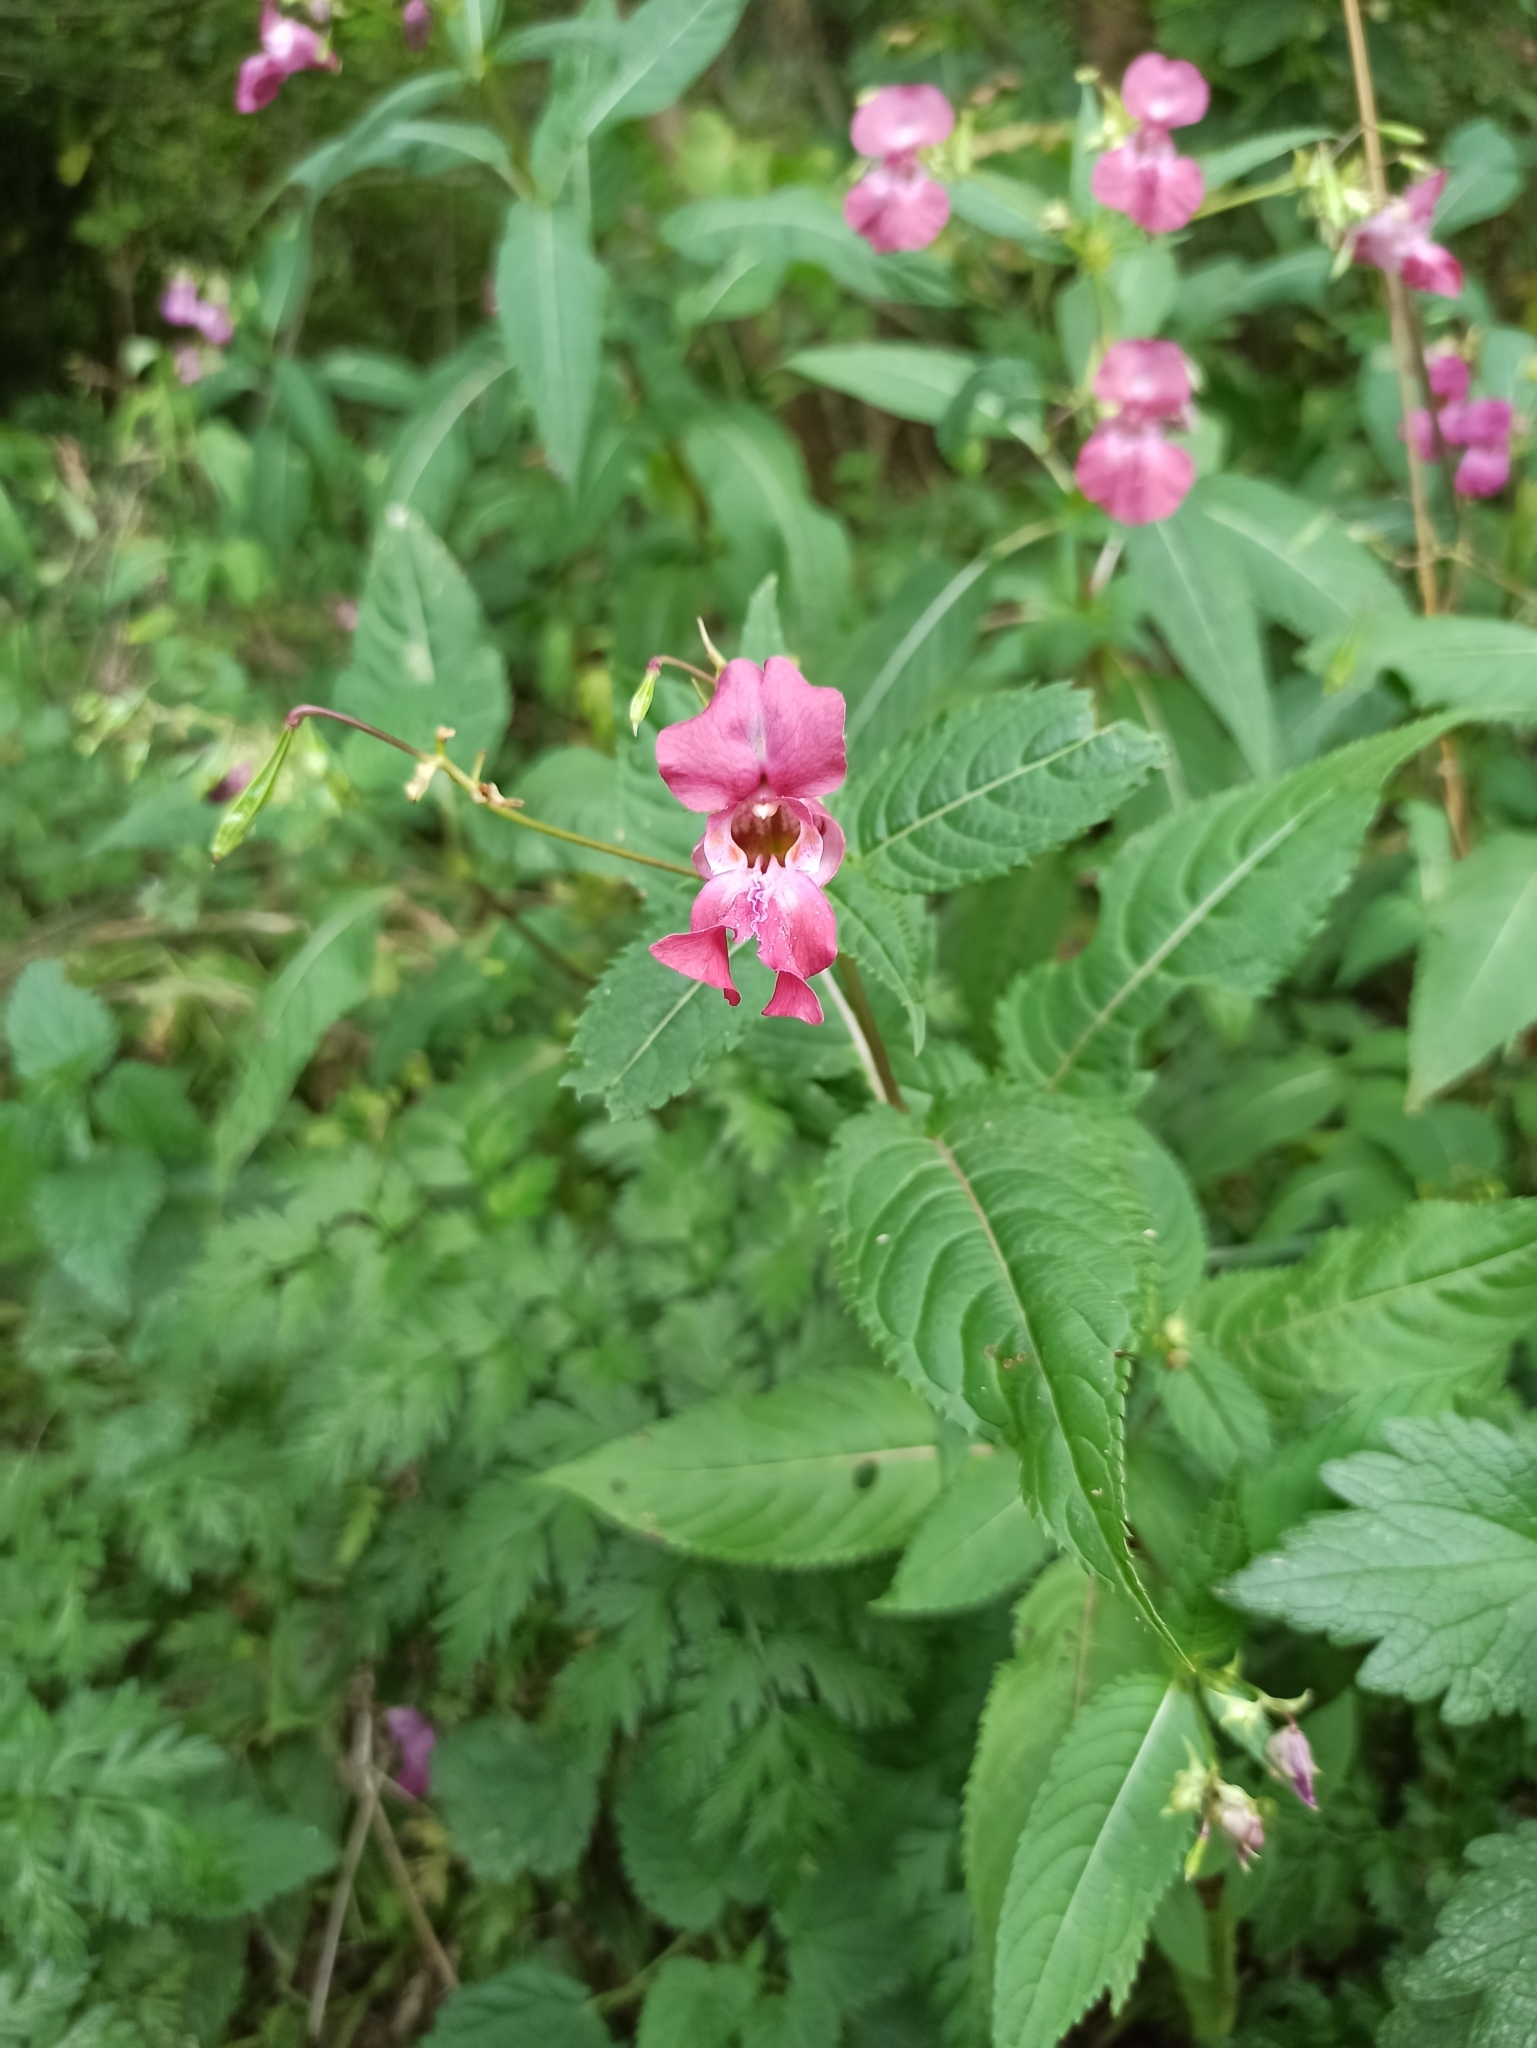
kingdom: Plantae
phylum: Tracheophyta
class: Magnoliopsida
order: Ericales
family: Balsaminaceae
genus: Impatiens
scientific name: Impatiens glandulifera
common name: Himalayan balsam
